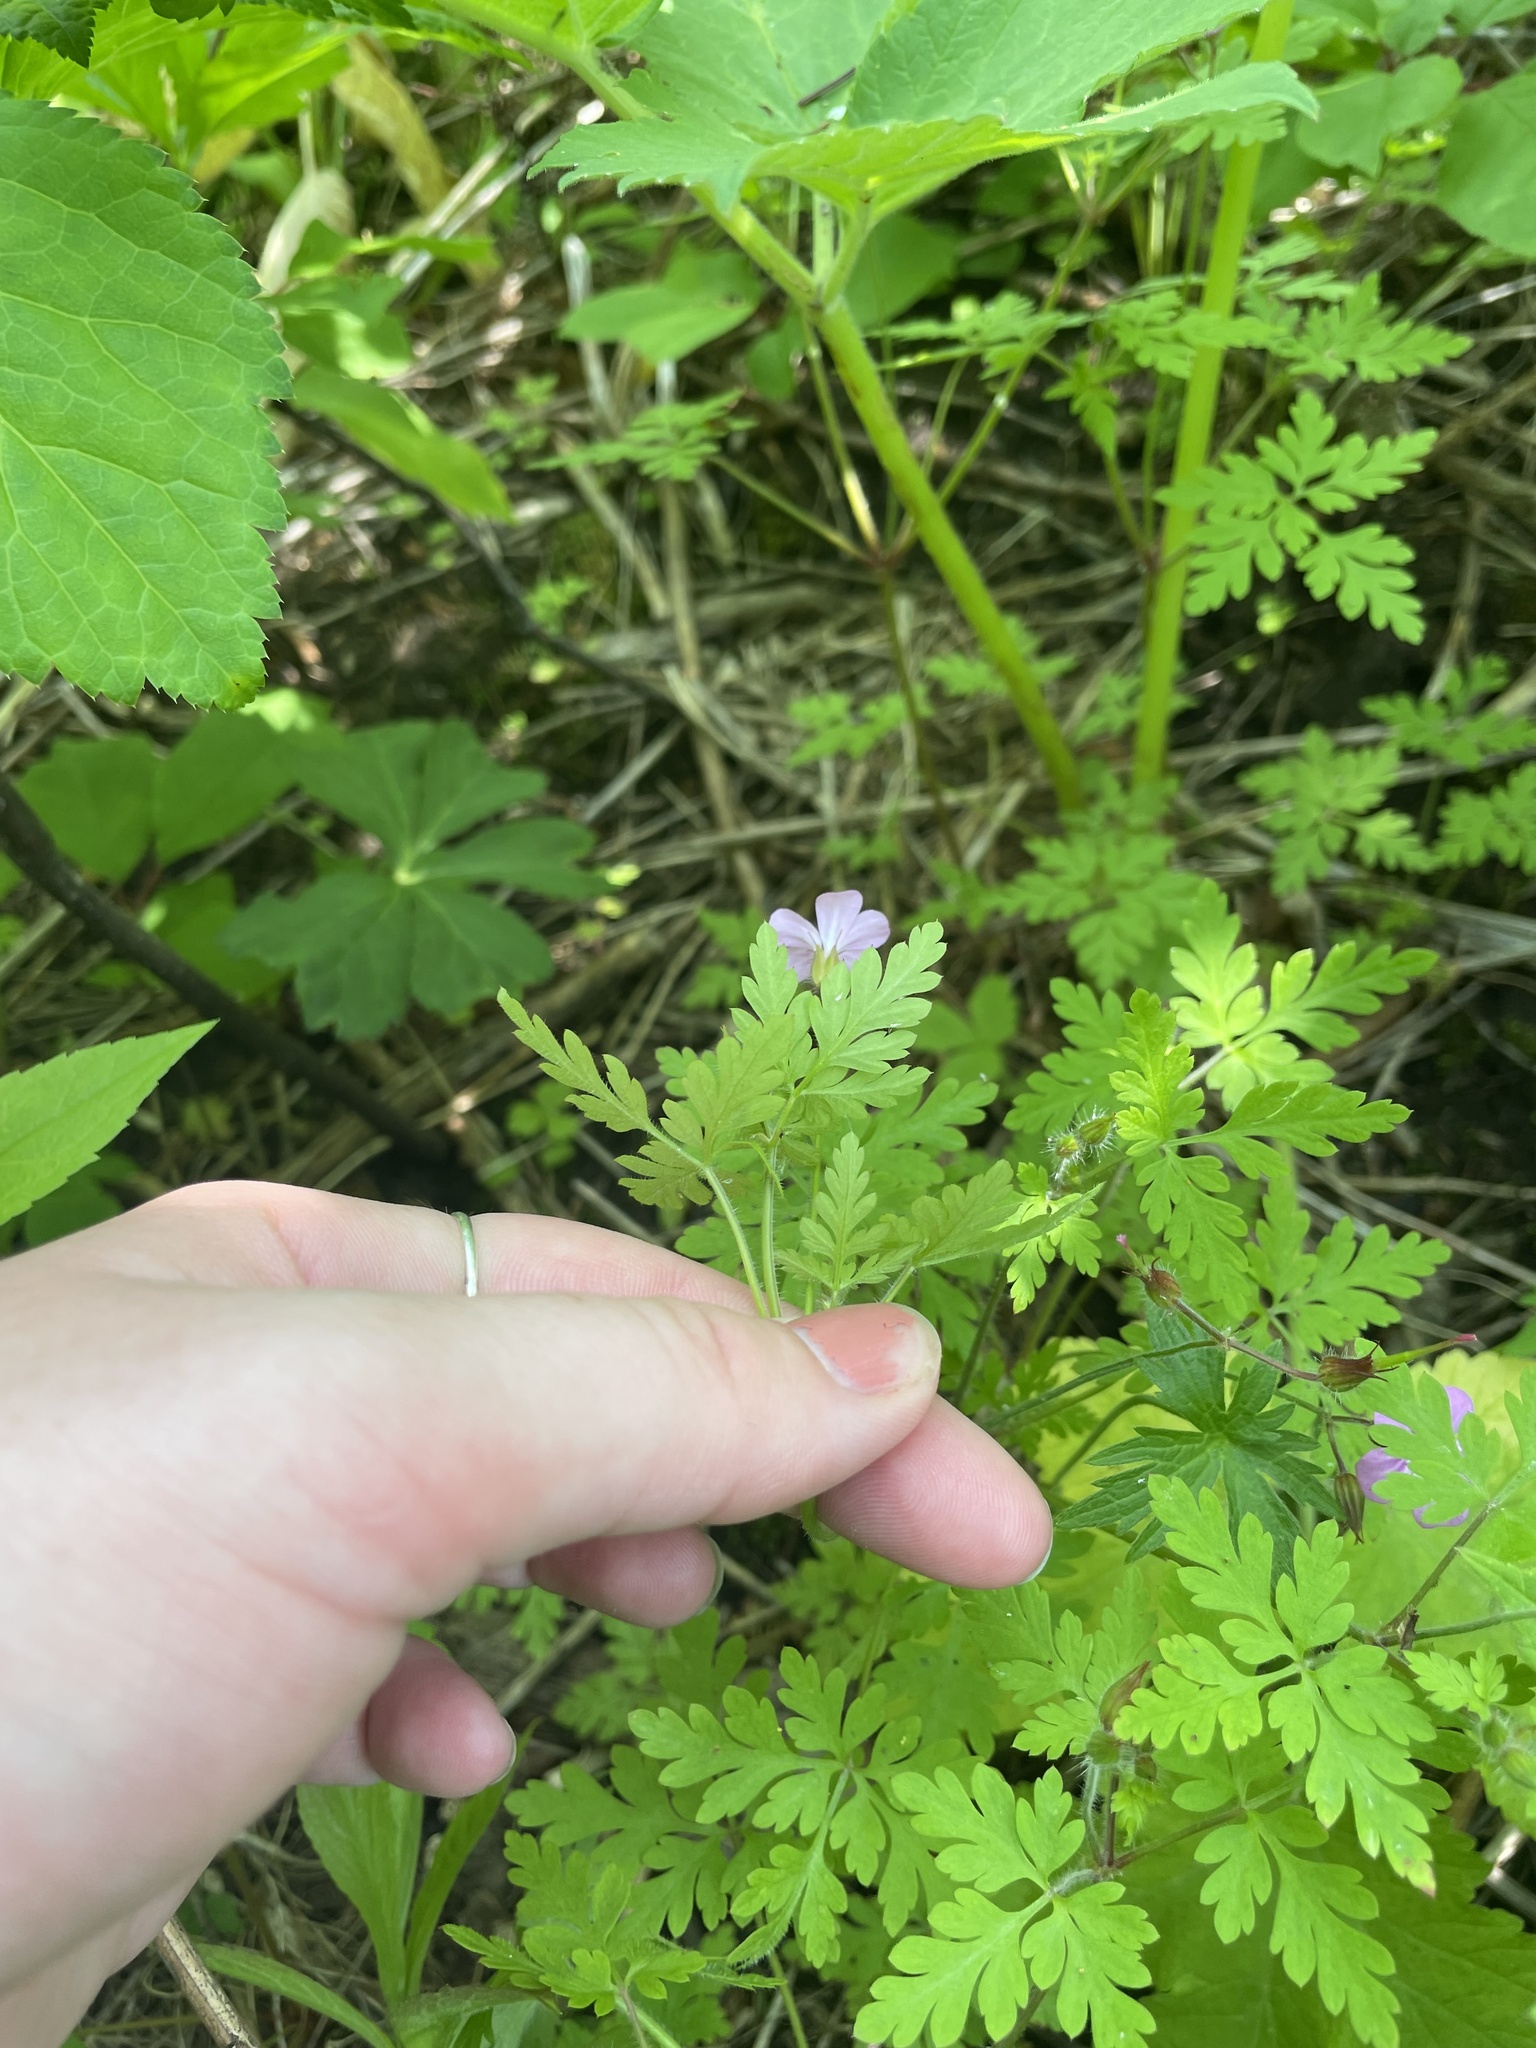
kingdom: Plantae
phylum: Tracheophyta
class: Magnoliopsida
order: Geraniales
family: Geraniaceae
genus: Geranium
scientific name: Geranium robertianum
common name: Herb-robert
